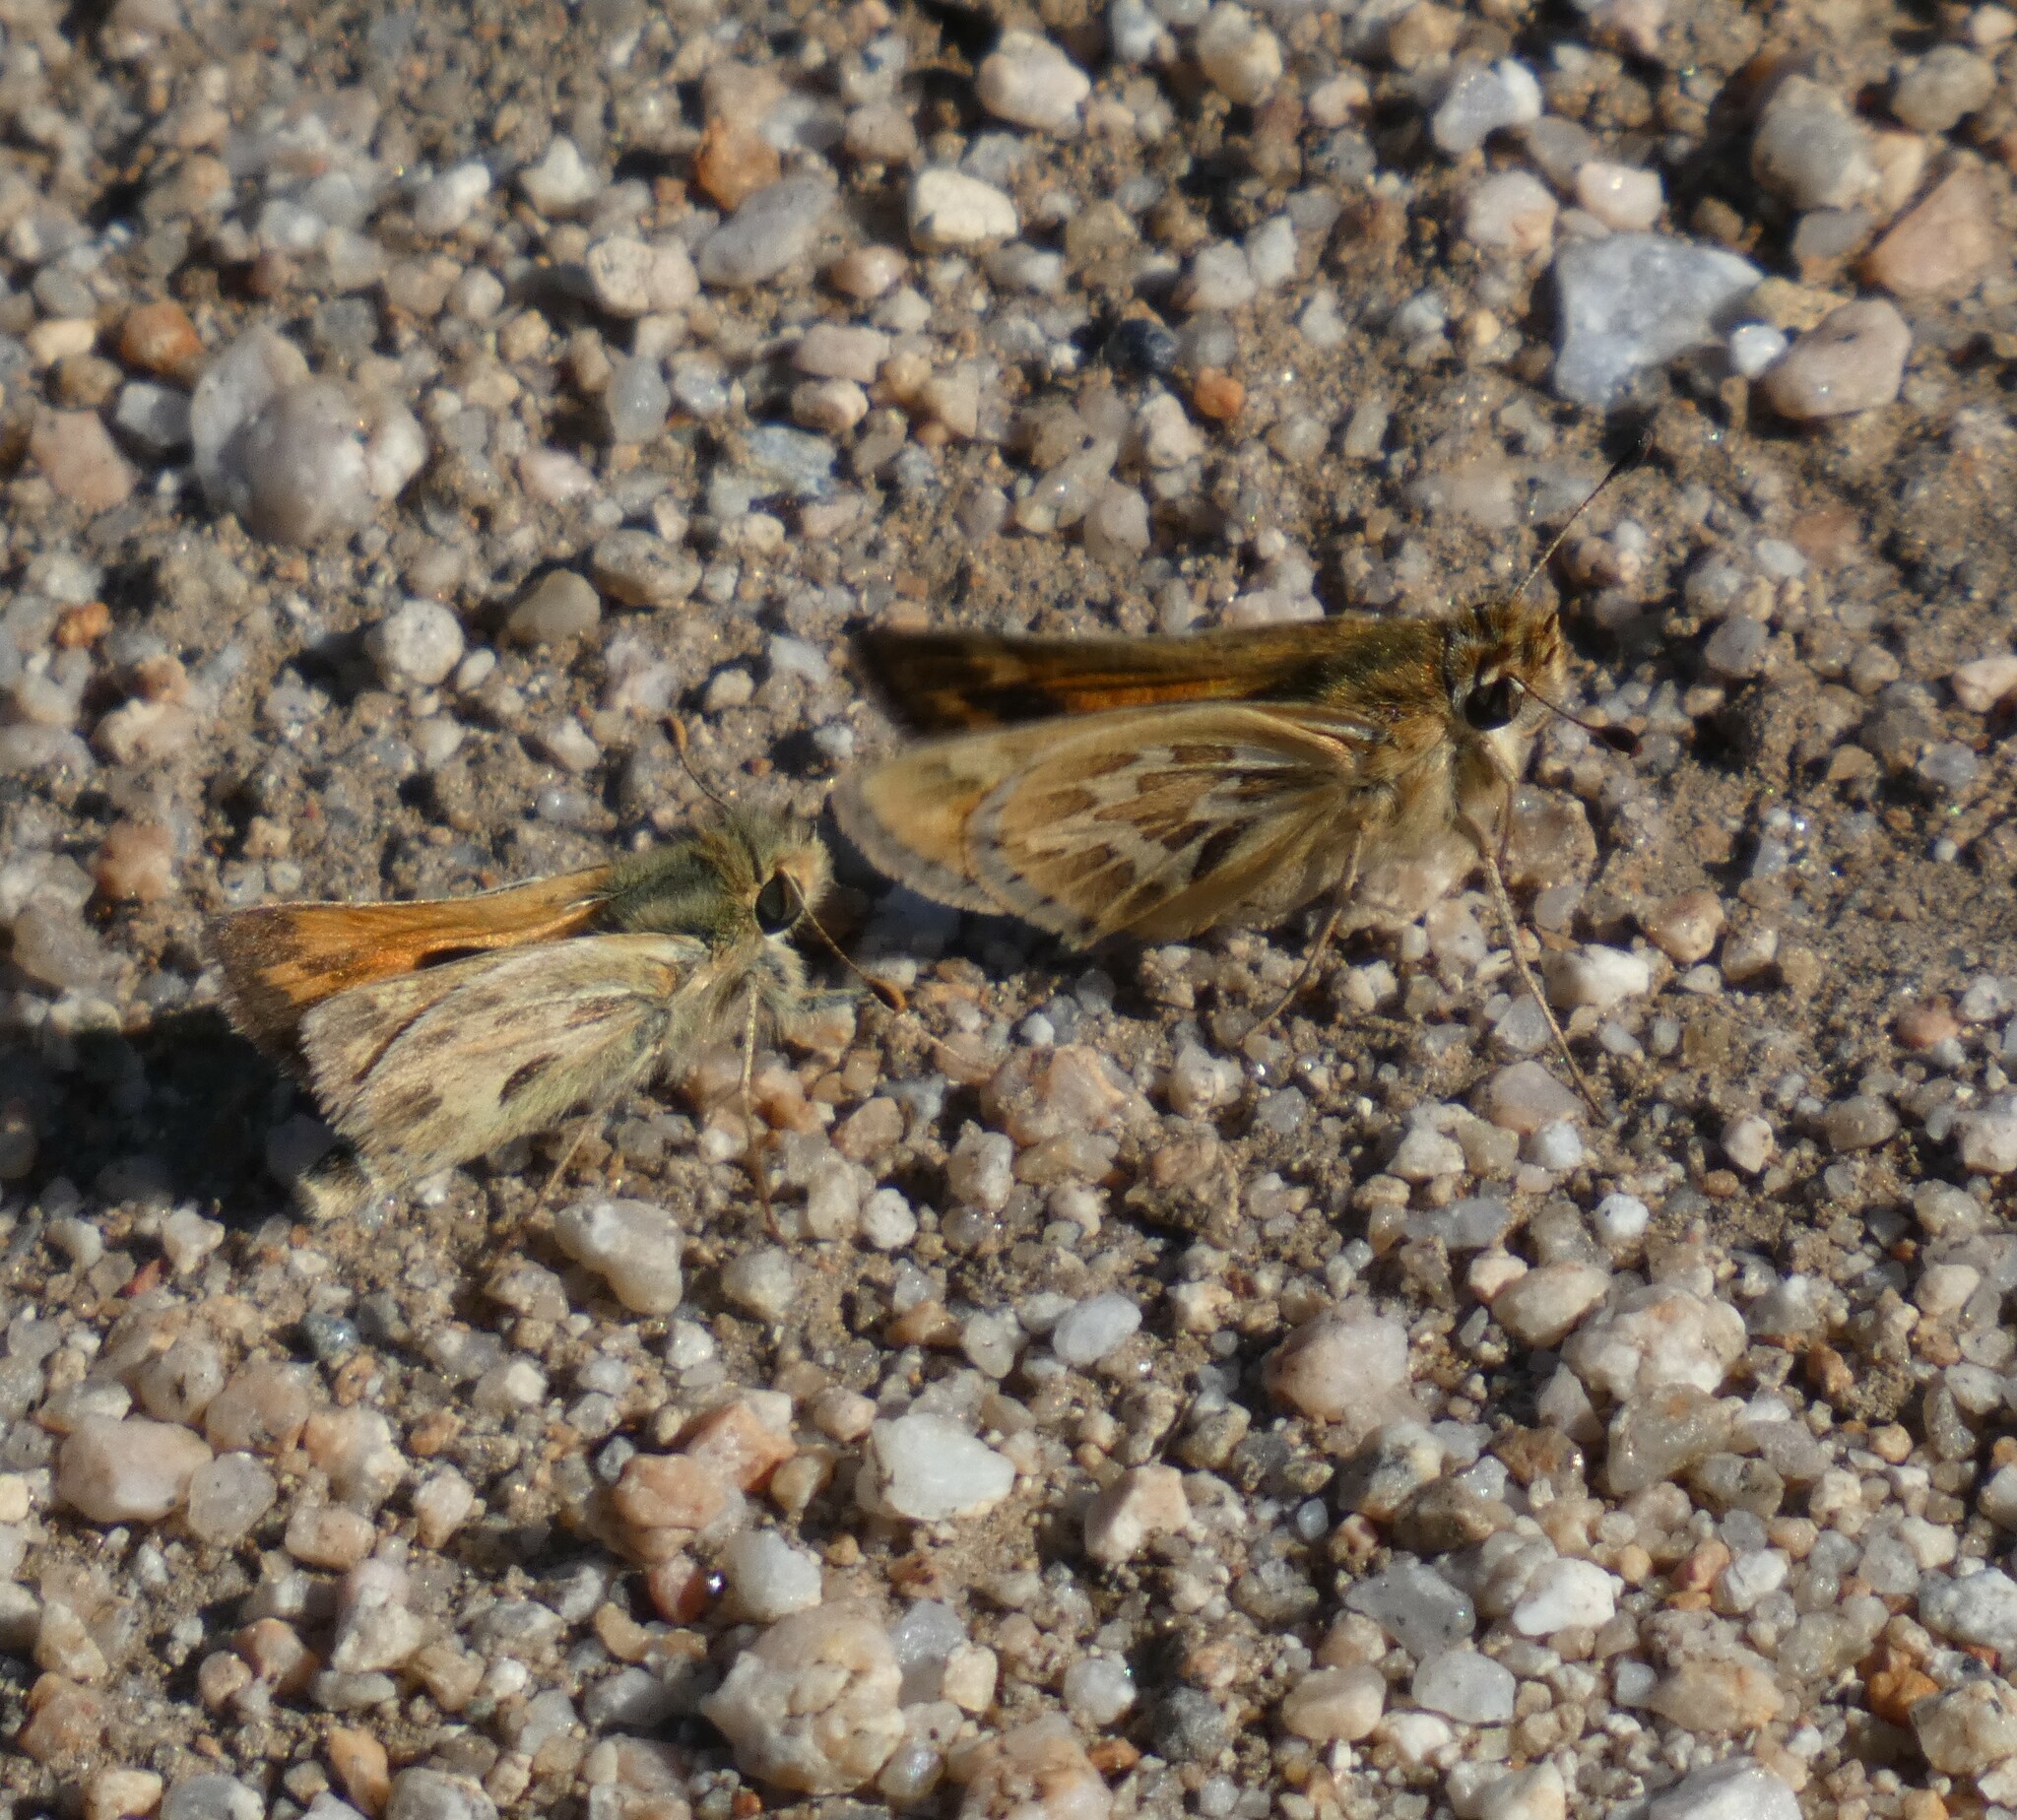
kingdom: Animalia
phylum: Arthropoda
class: Insecta
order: Lepidoptera
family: Hesperiidae
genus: Polites
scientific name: Polites sabuleti
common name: Sandhill skipper
